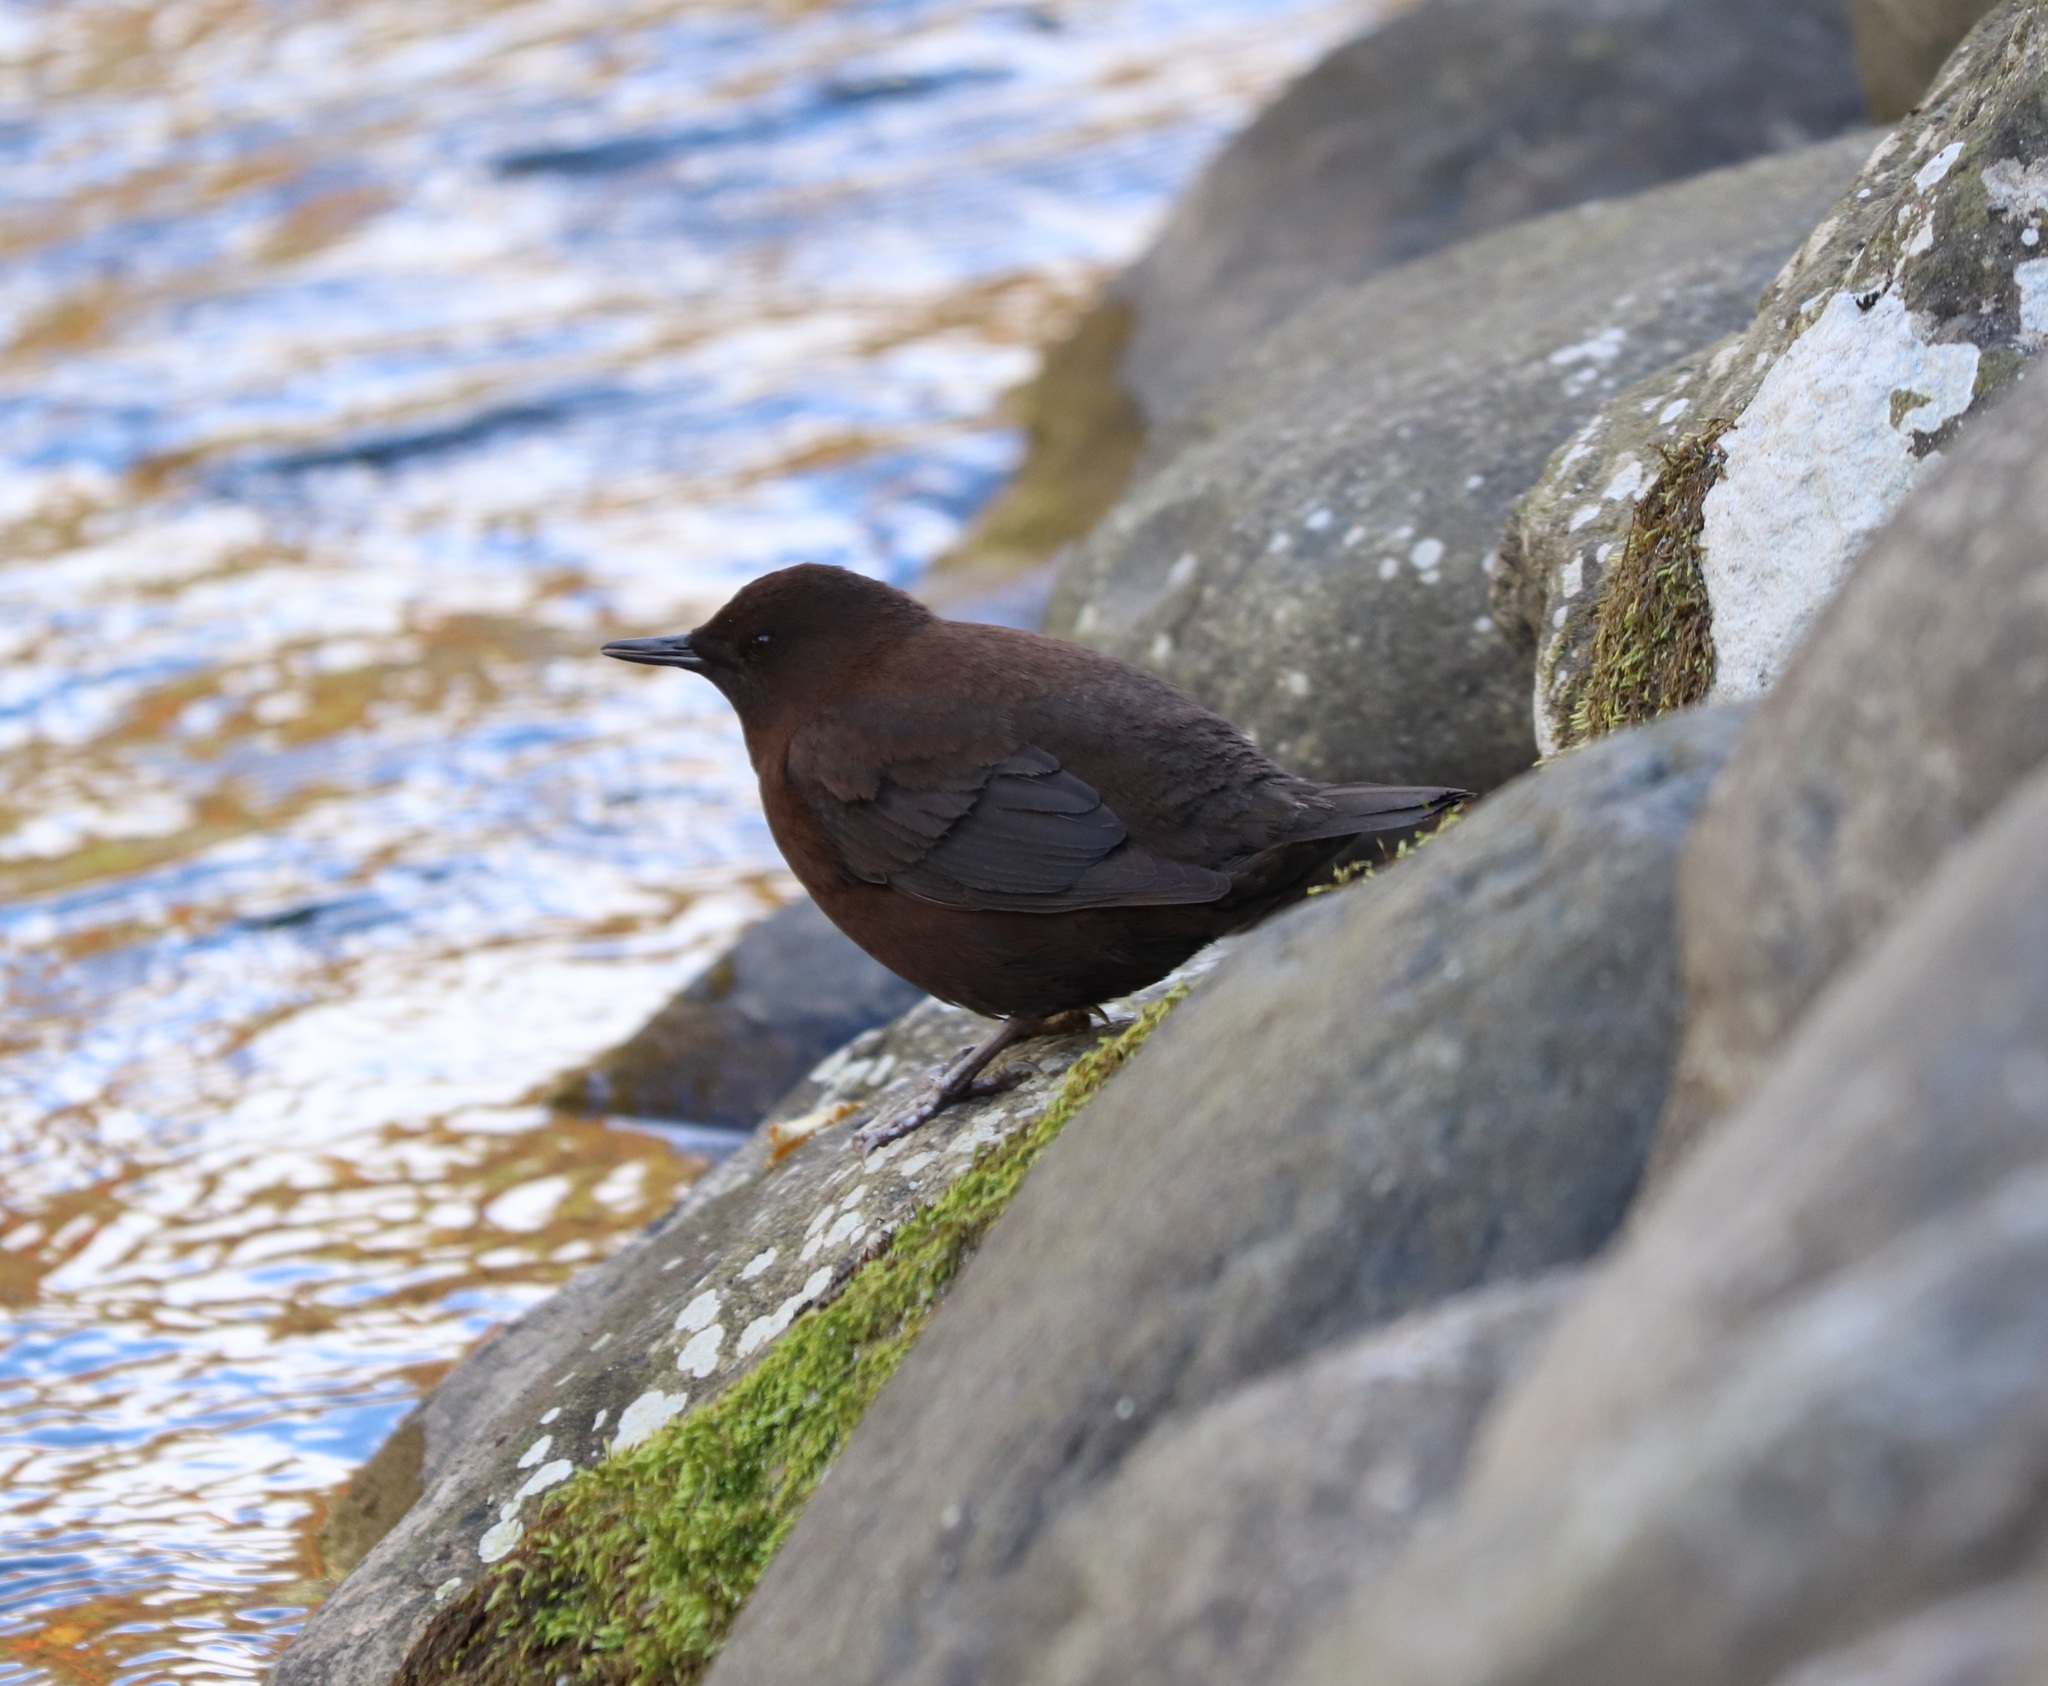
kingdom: Animalia
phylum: Chordata
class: Aves
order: Passeriformes
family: Cinclidae
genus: Cinclus
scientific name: Cinclus pallasii
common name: Brown dipper
